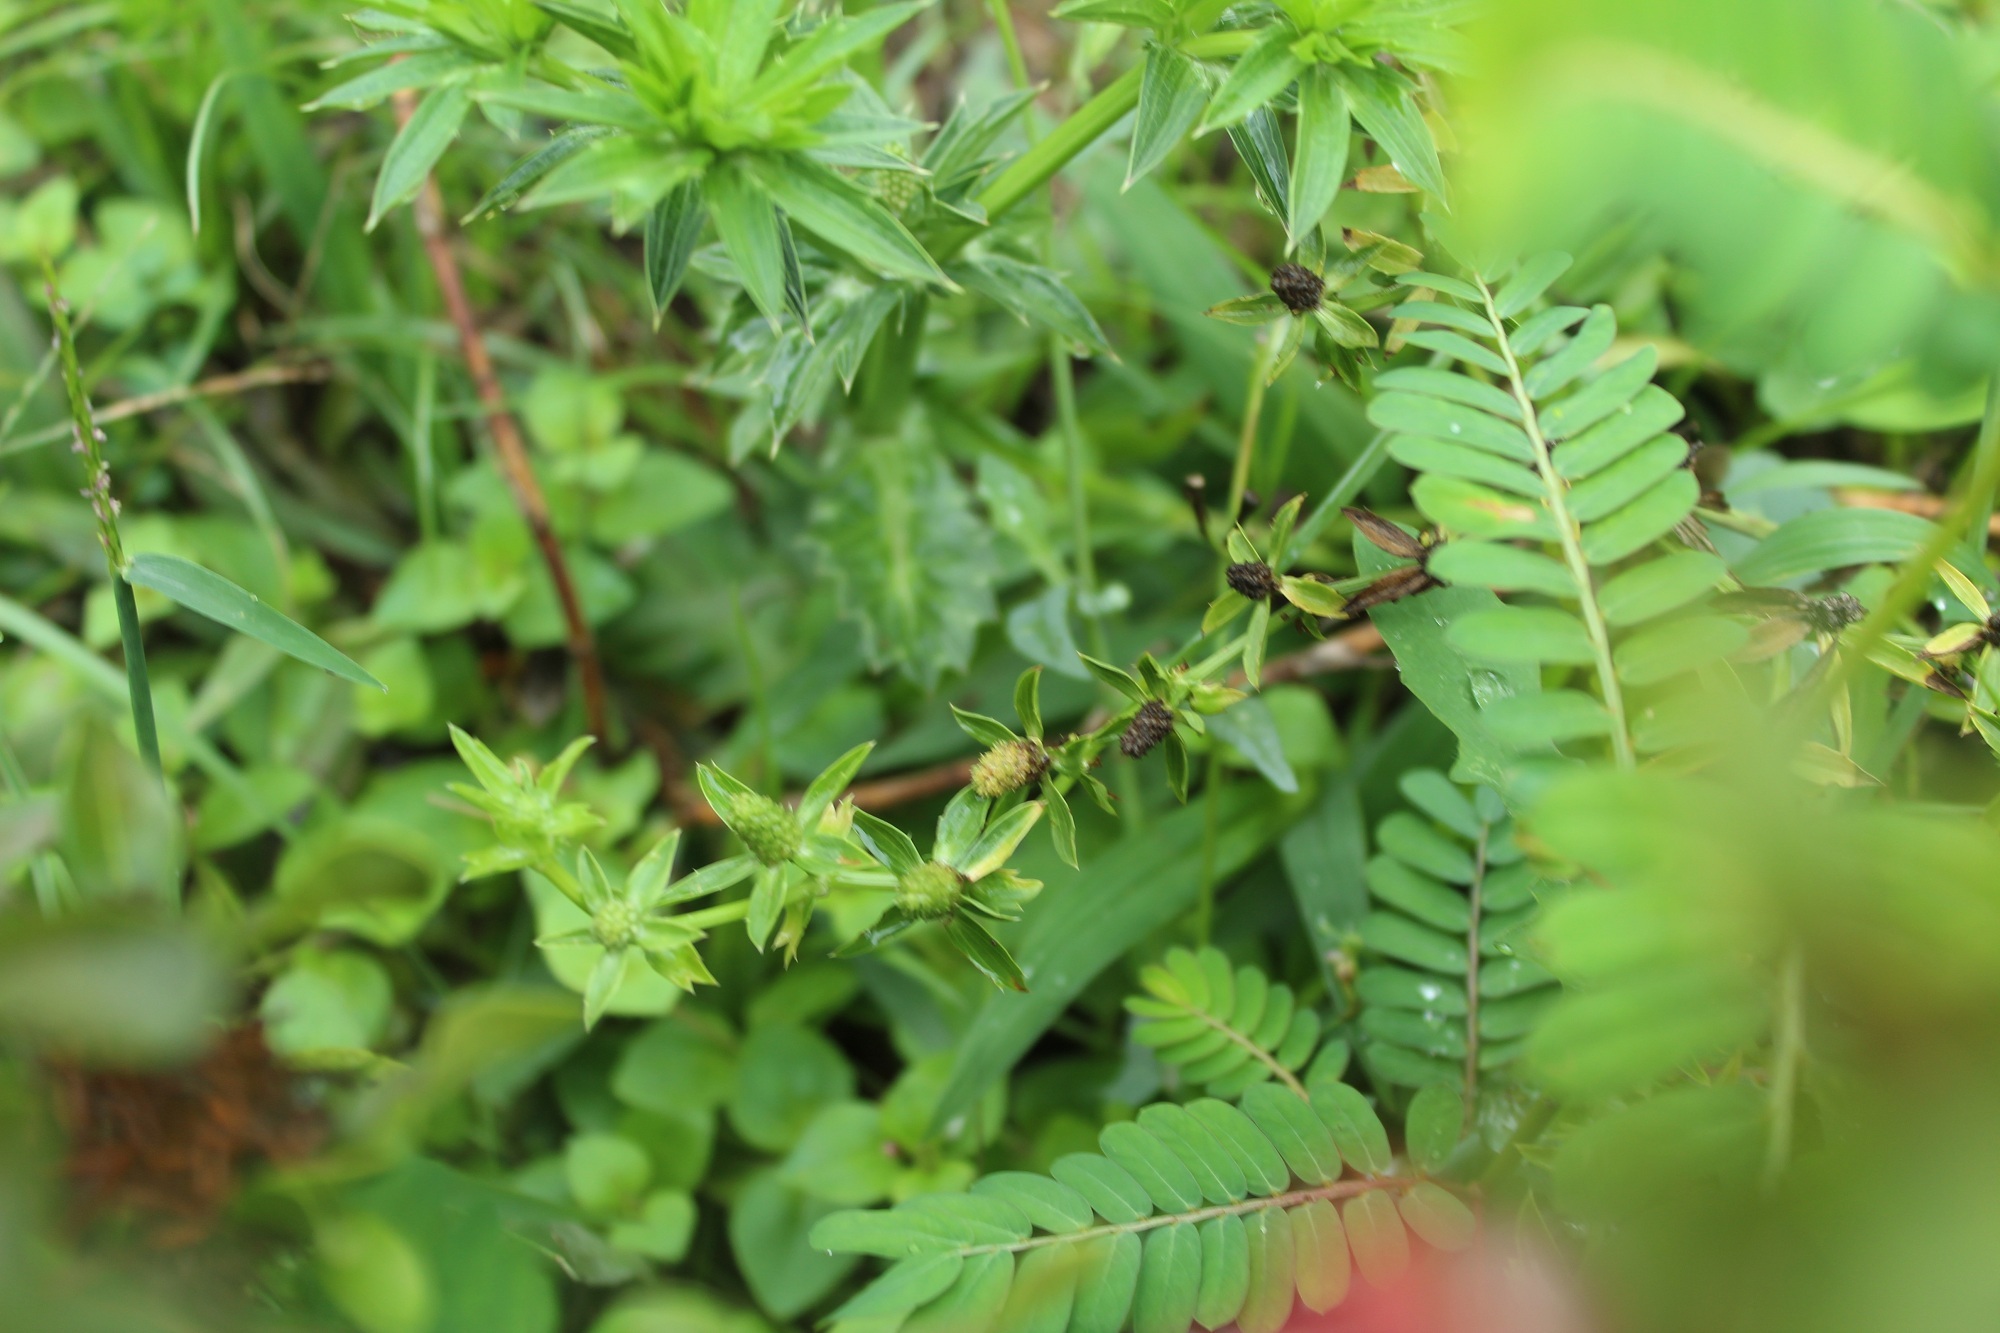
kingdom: Plantae
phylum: Tracheophyta
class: Magnoliopsida
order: Apiales
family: Apiaceae
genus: Eryngium
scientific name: Eryngium foetidum
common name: Fitweed
